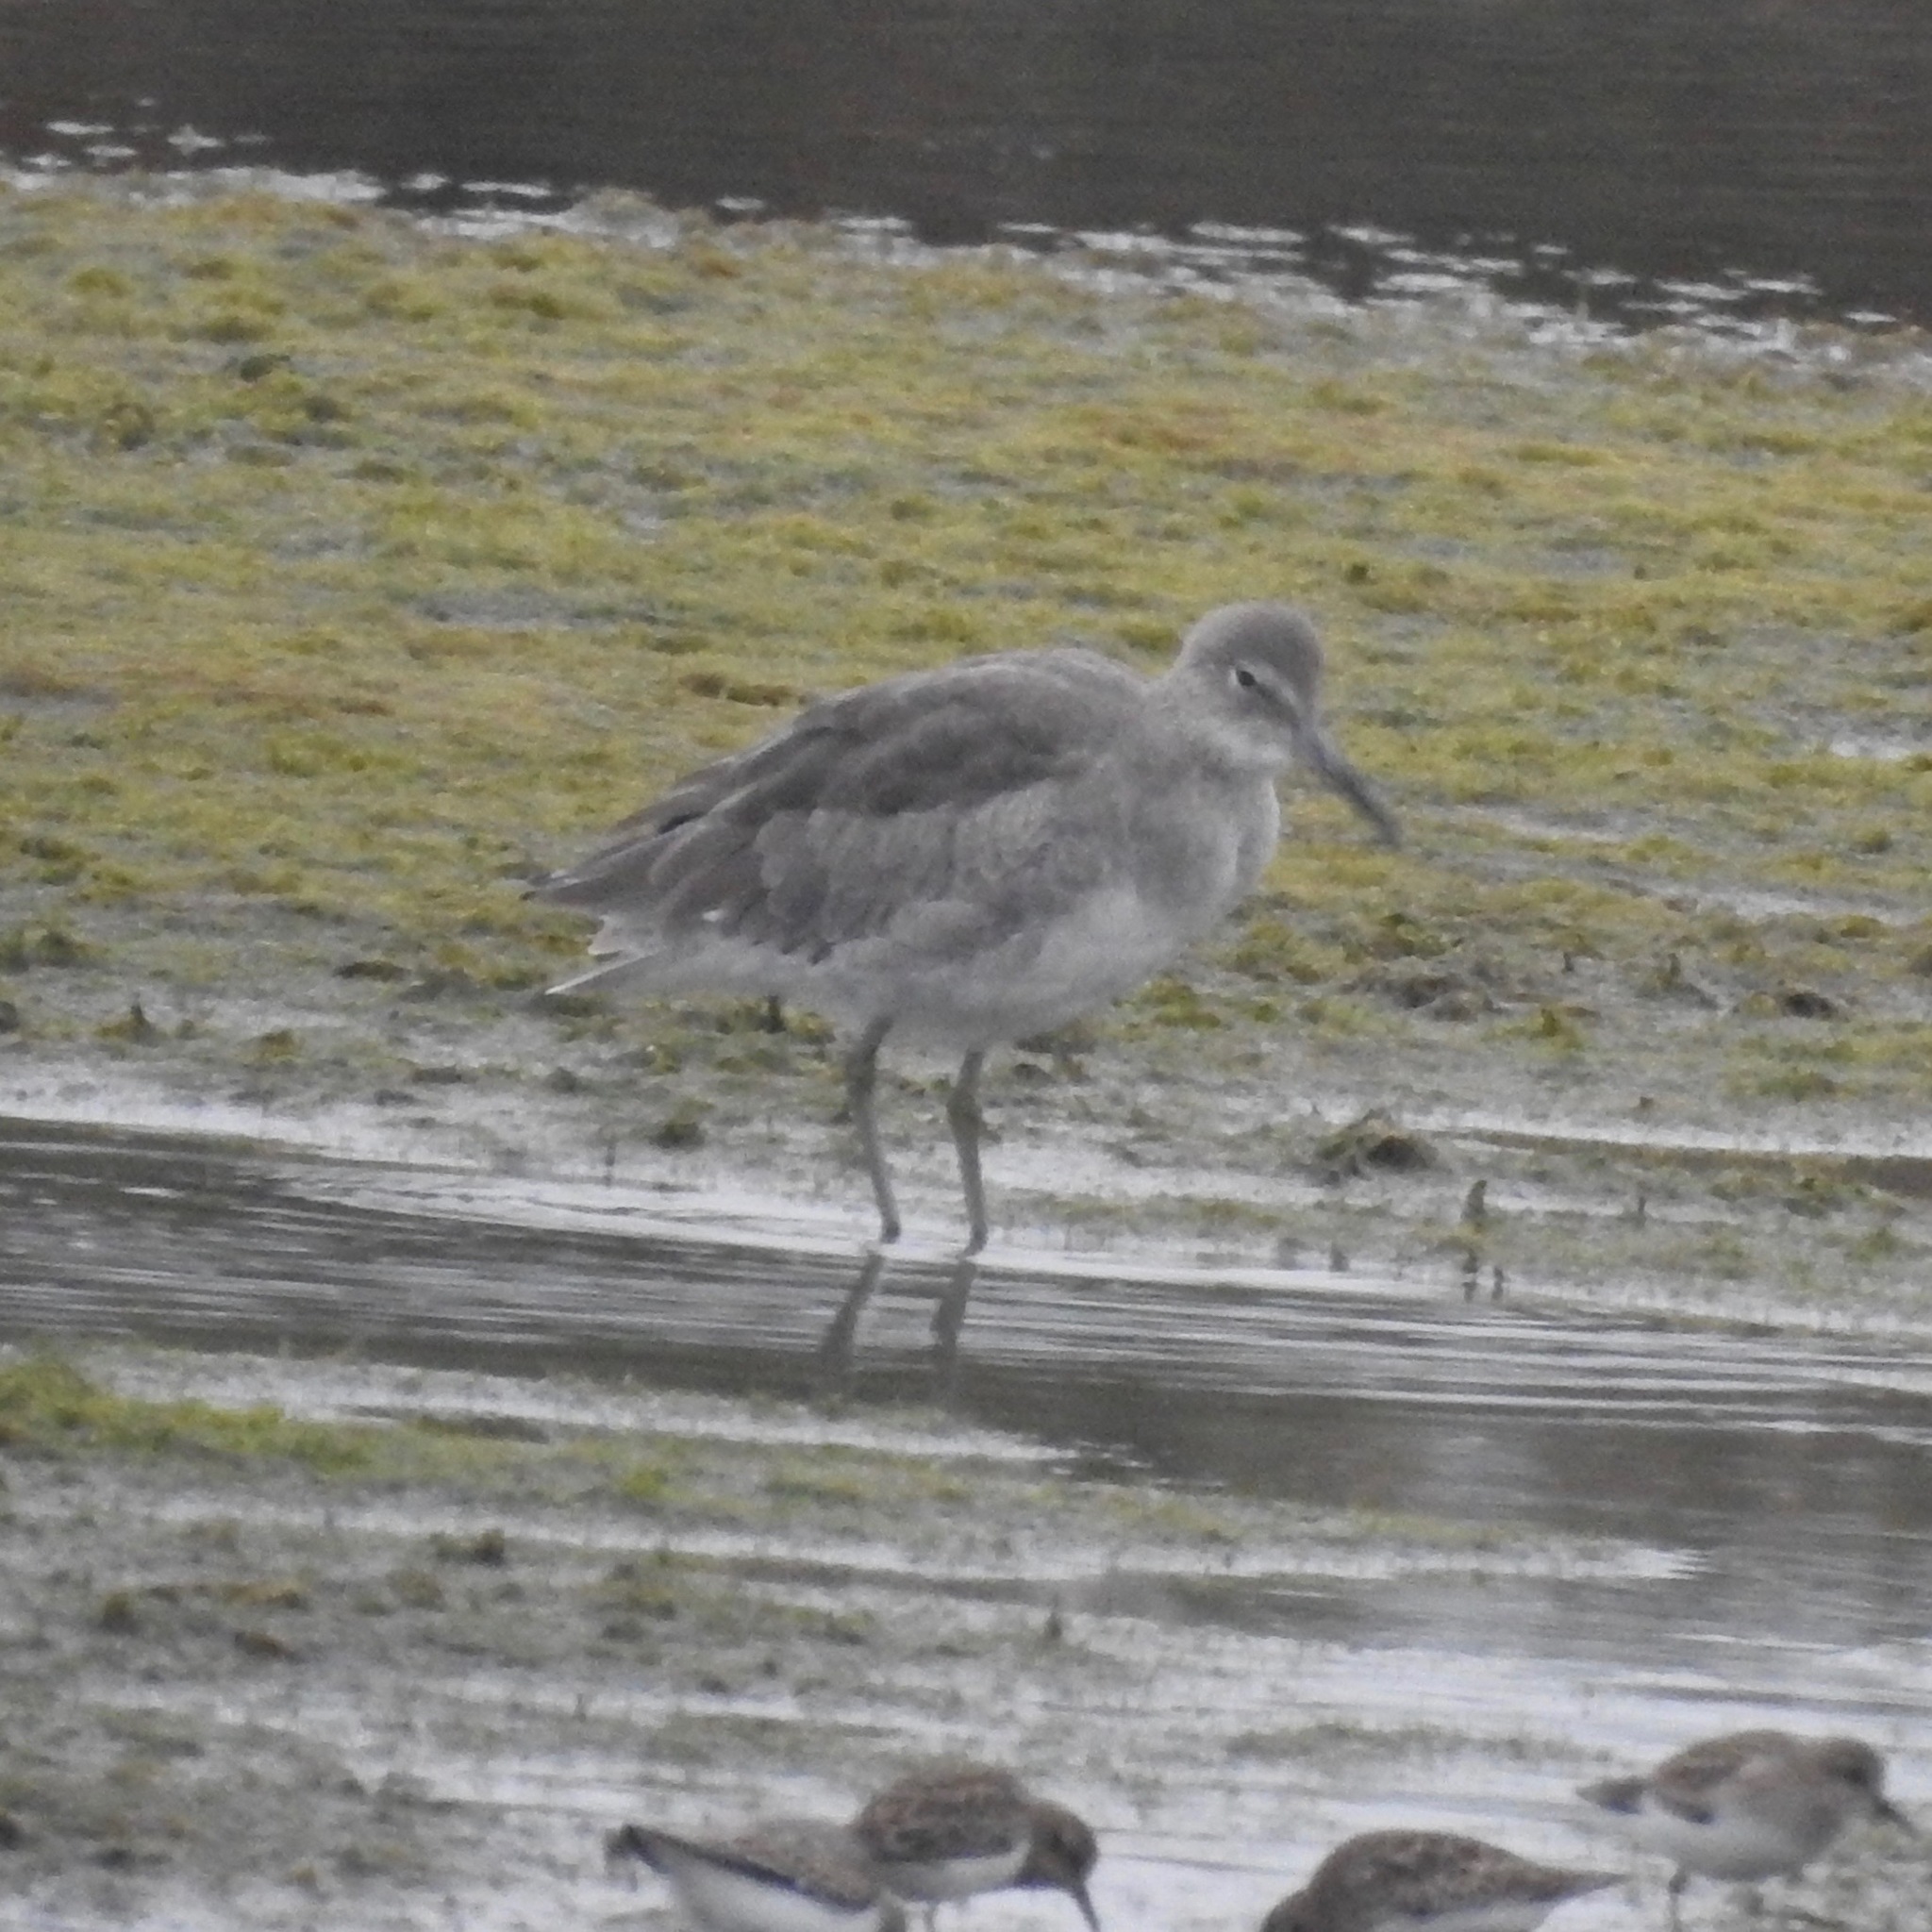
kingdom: Animalia
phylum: Chordata
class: Aves
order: Charadriiformes
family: Scolopacidae
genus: Tringa
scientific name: Tringa semipalmata
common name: Willet
